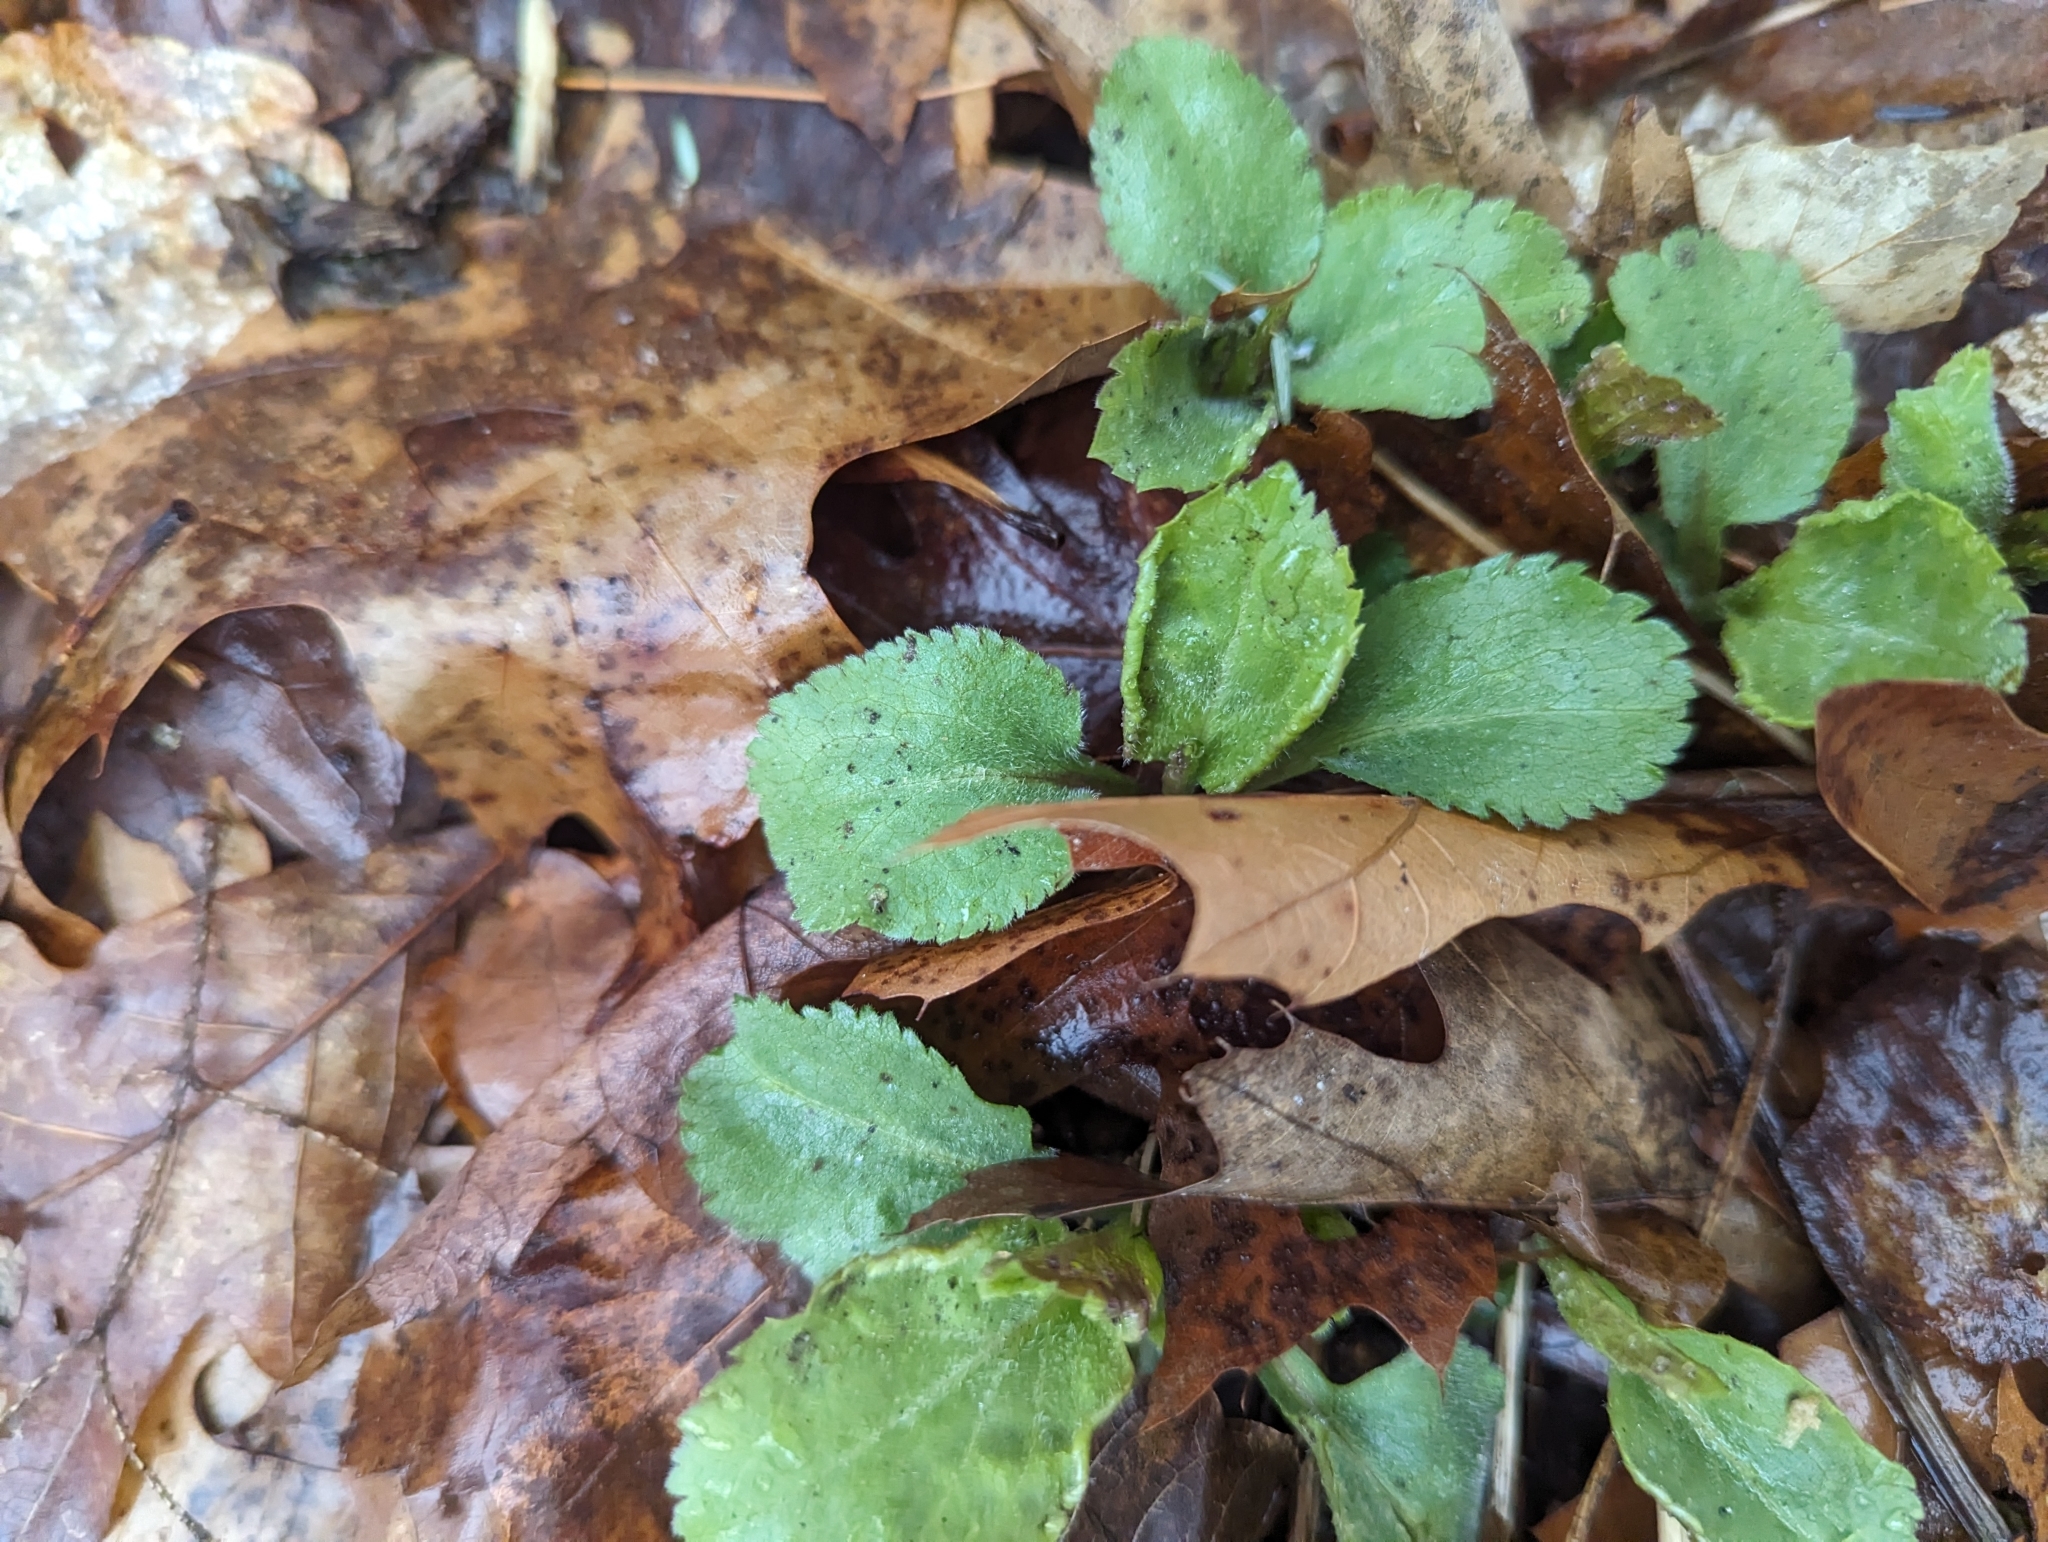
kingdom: Plantae
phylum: Tracheophyta
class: Magnoliopsida
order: Lamiales
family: Plantaginaceae
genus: Veronica
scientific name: Veronica officinalis
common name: Common speedwell
